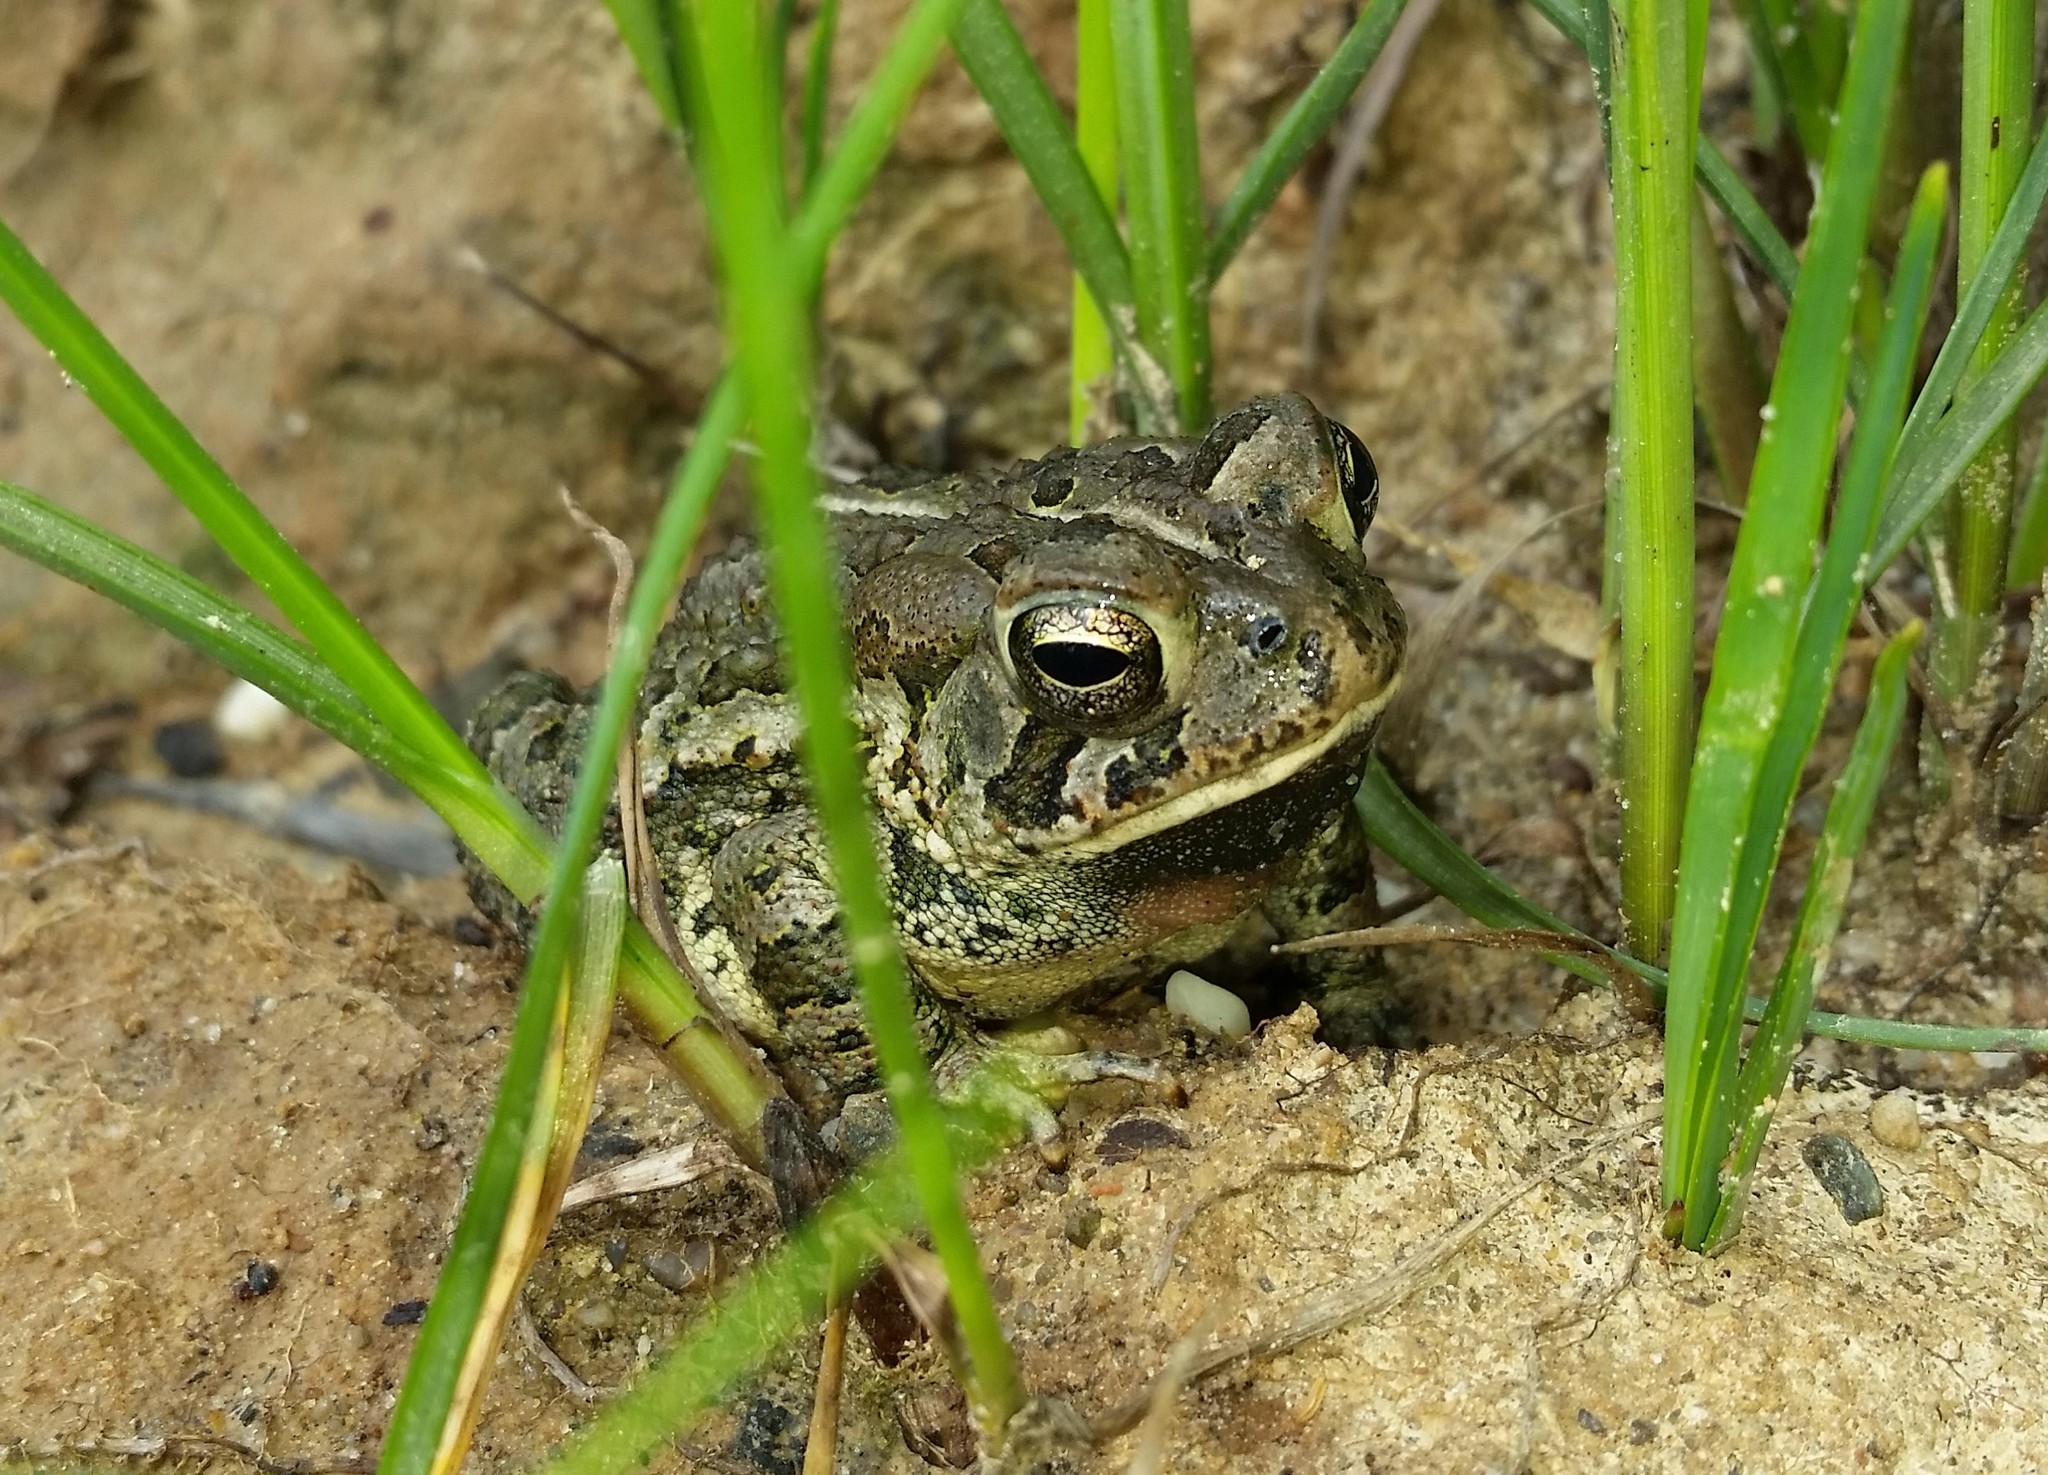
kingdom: Animalia
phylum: Chordata
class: Amphibia
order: Anura
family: Bufonidae
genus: Anaxyrus
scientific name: Anaxyrus fowleri
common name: Fowler's toad
